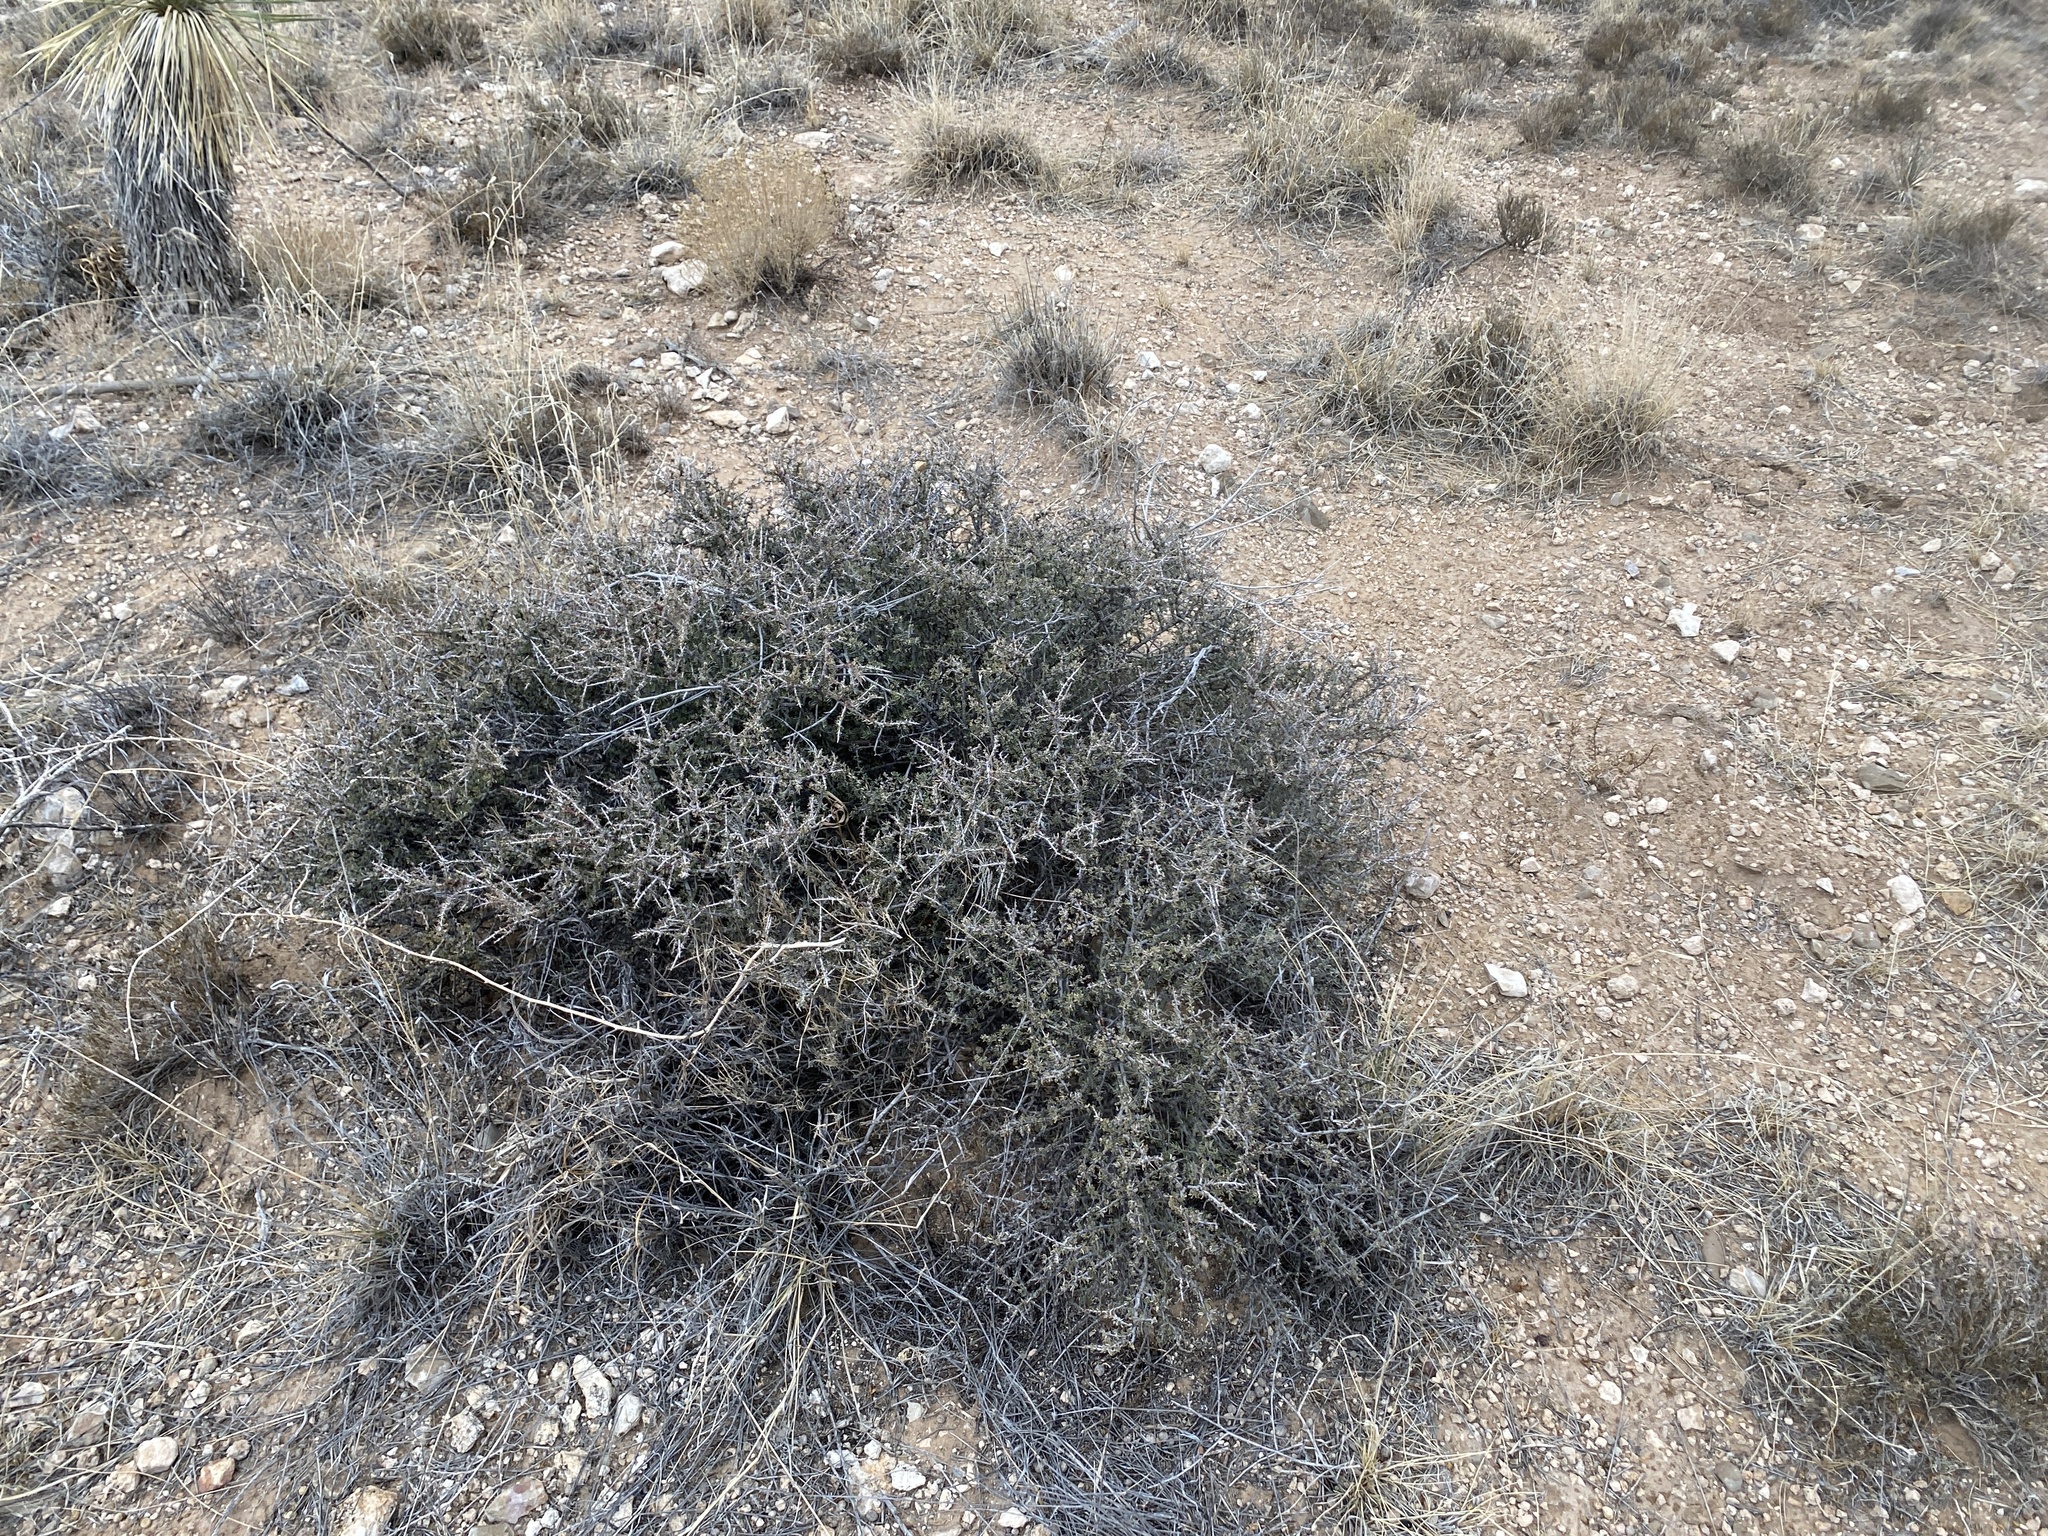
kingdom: Plantae
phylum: Tracheophyta
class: Magnoliopsida
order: Rosales
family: Rhamnaceae
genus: Condalia
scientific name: Condalia ericoides
